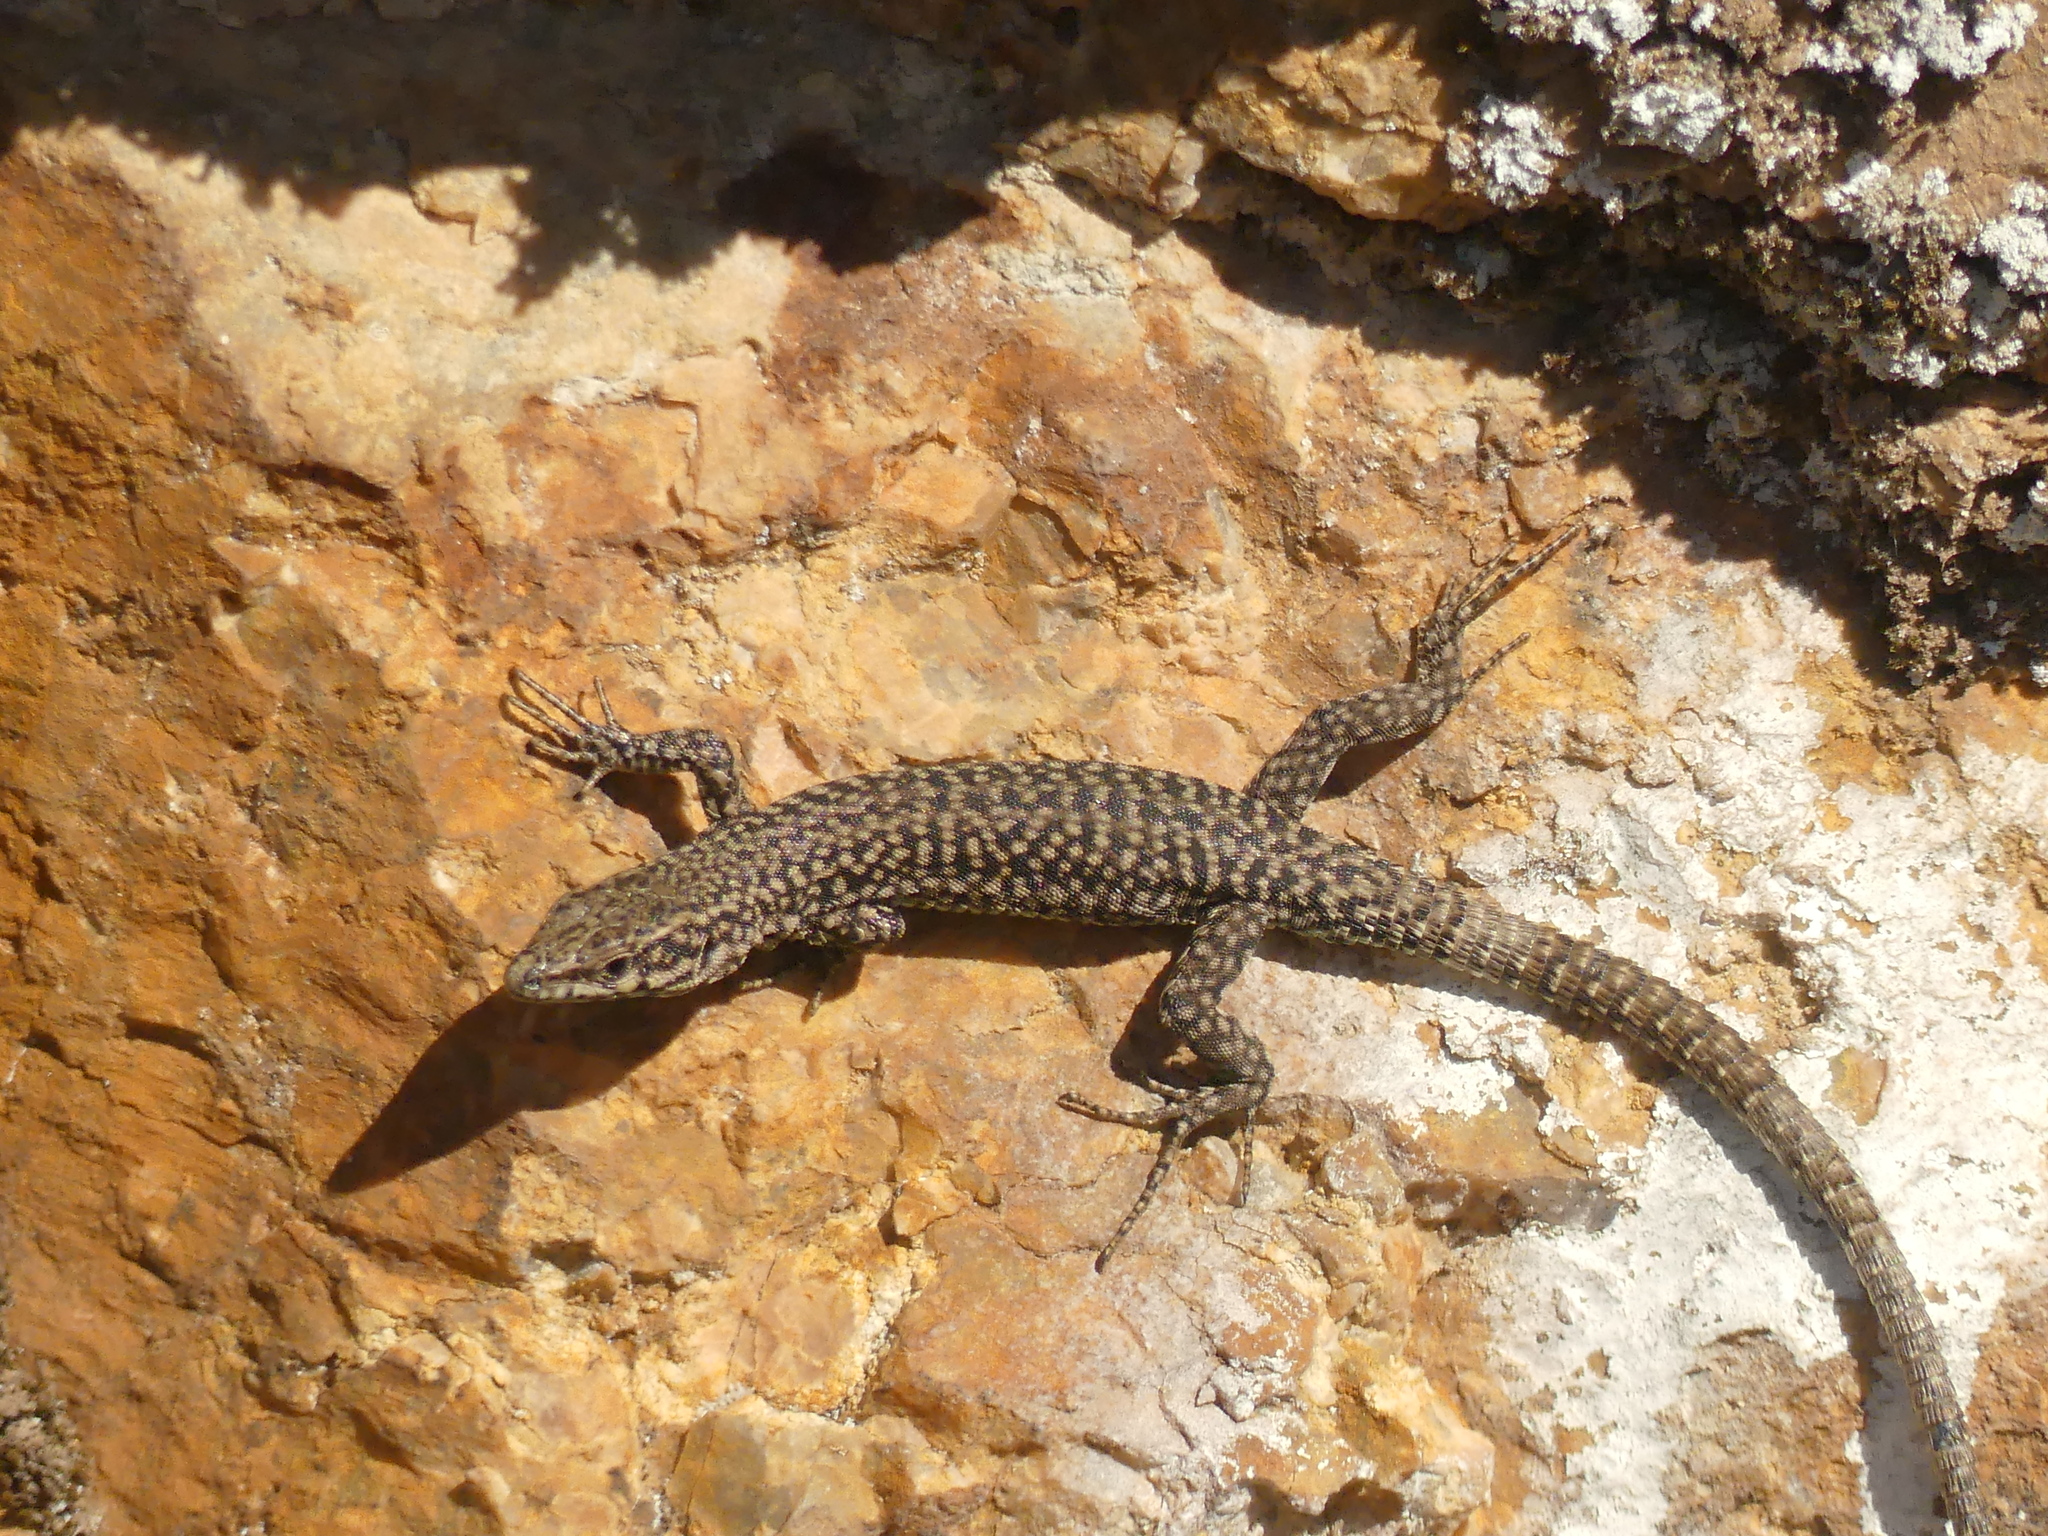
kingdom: Animalia
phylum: Chordata
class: Squamata
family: Lacertidae
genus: Podarcis
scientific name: Podarcis liolepis
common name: Catalonian wall lizard
